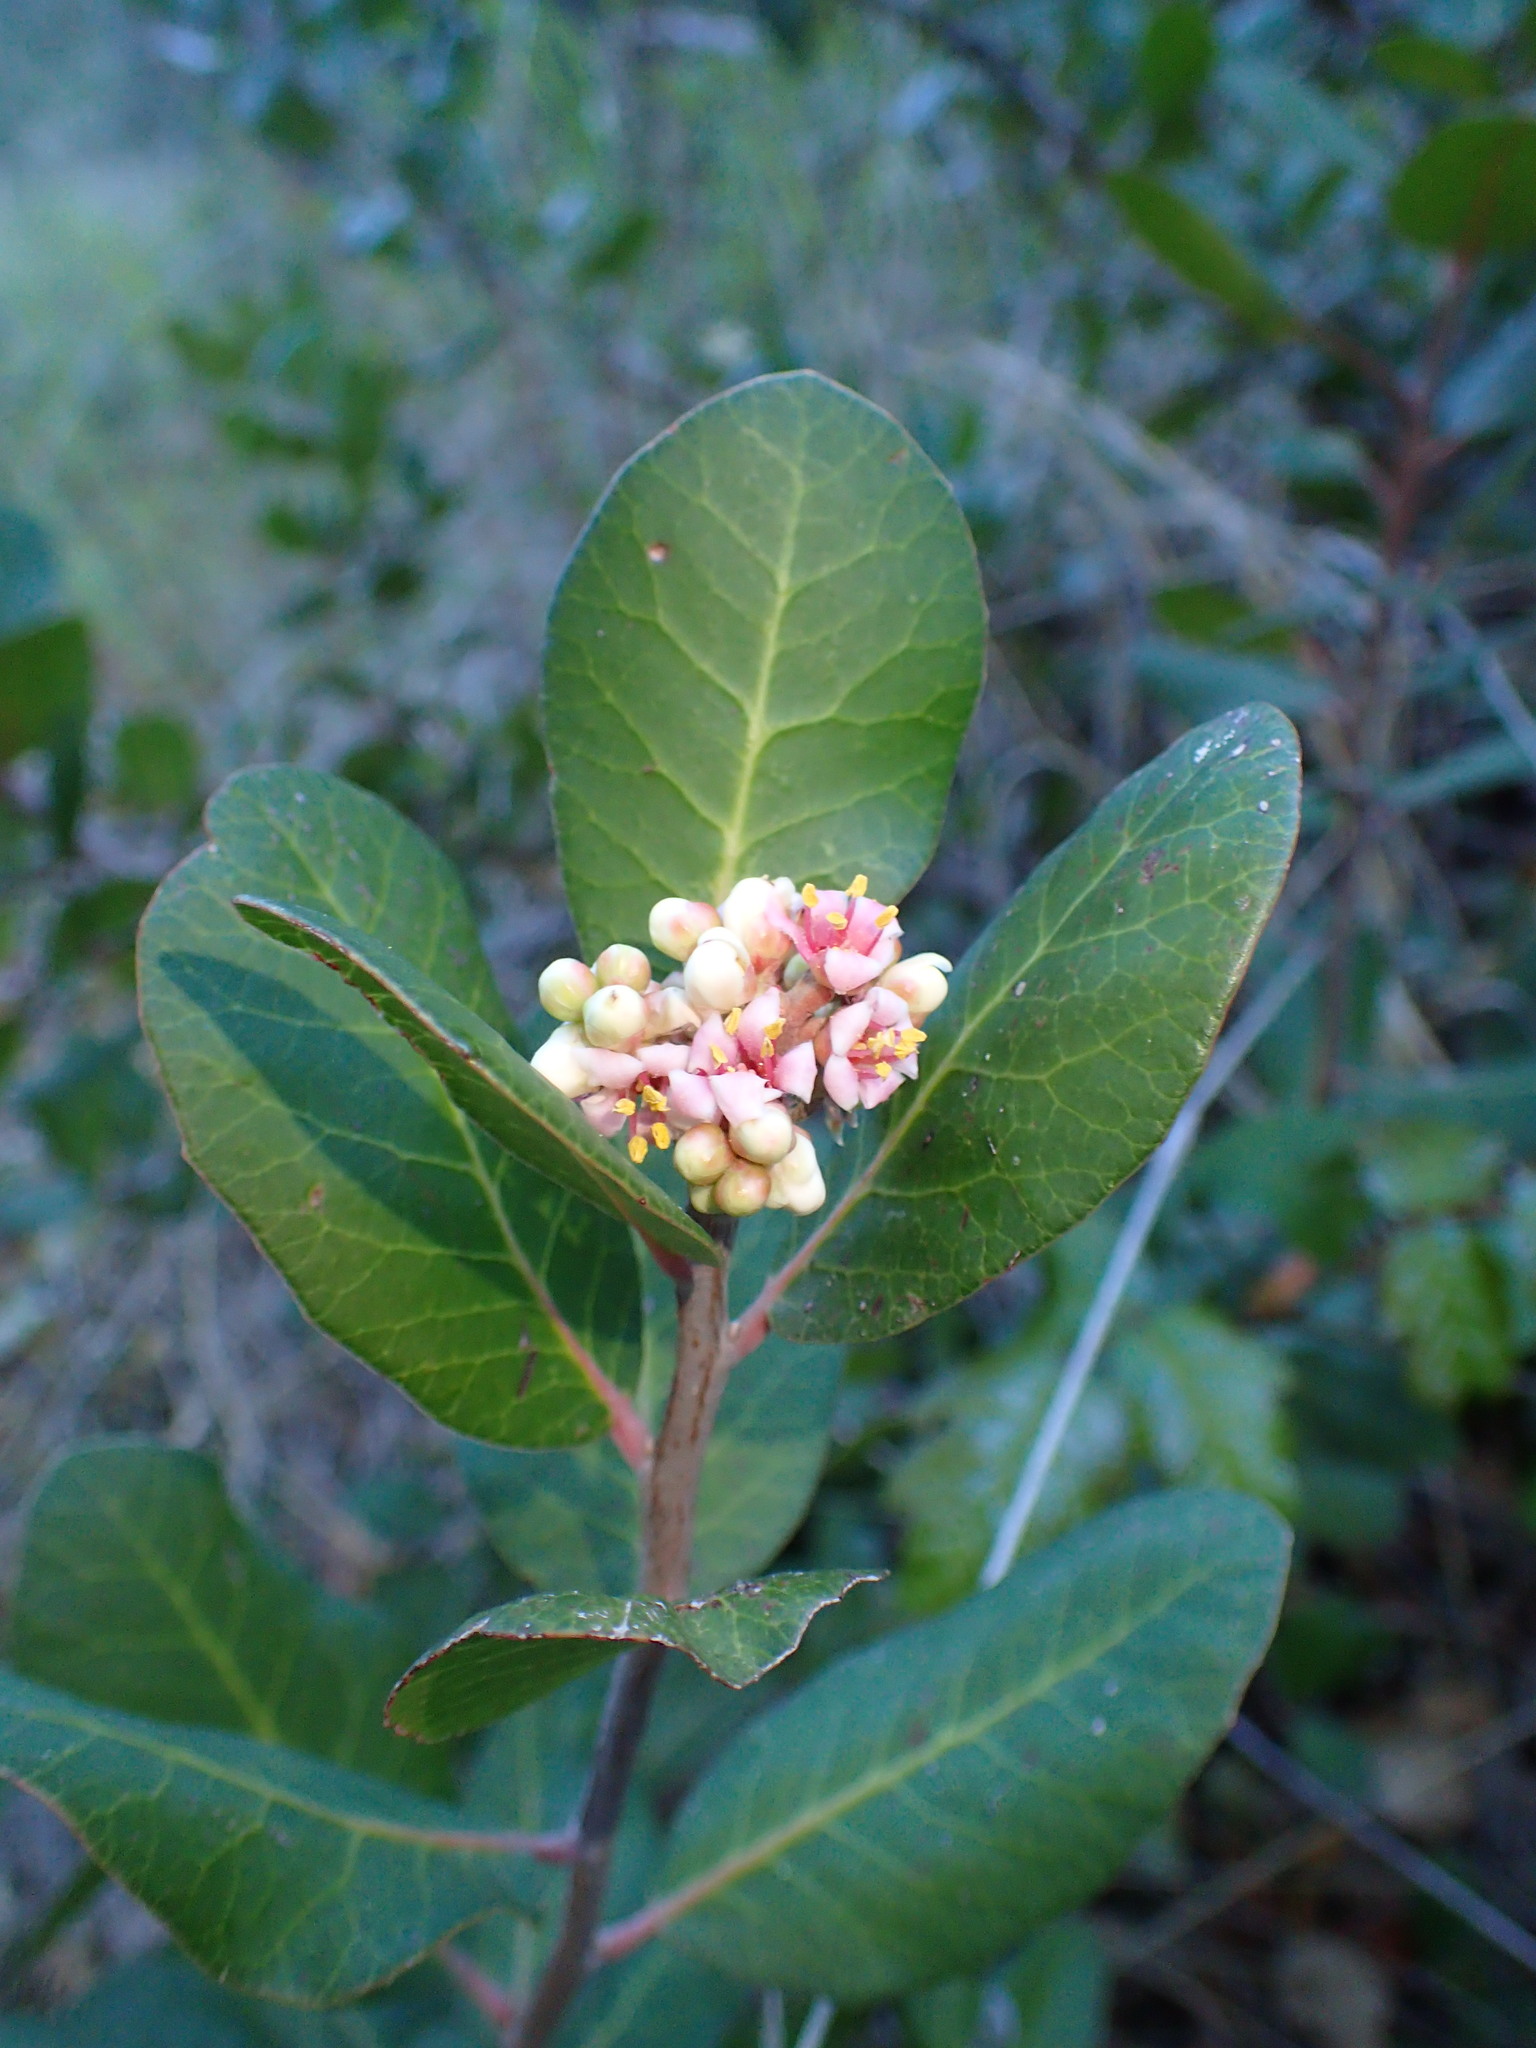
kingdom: Plantae
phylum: Tracheophyta
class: Magnoliopsida
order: Sapindales
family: Anacardiaceae
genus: Rhus
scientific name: Rhus integrifolia
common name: Lemonade sumac
